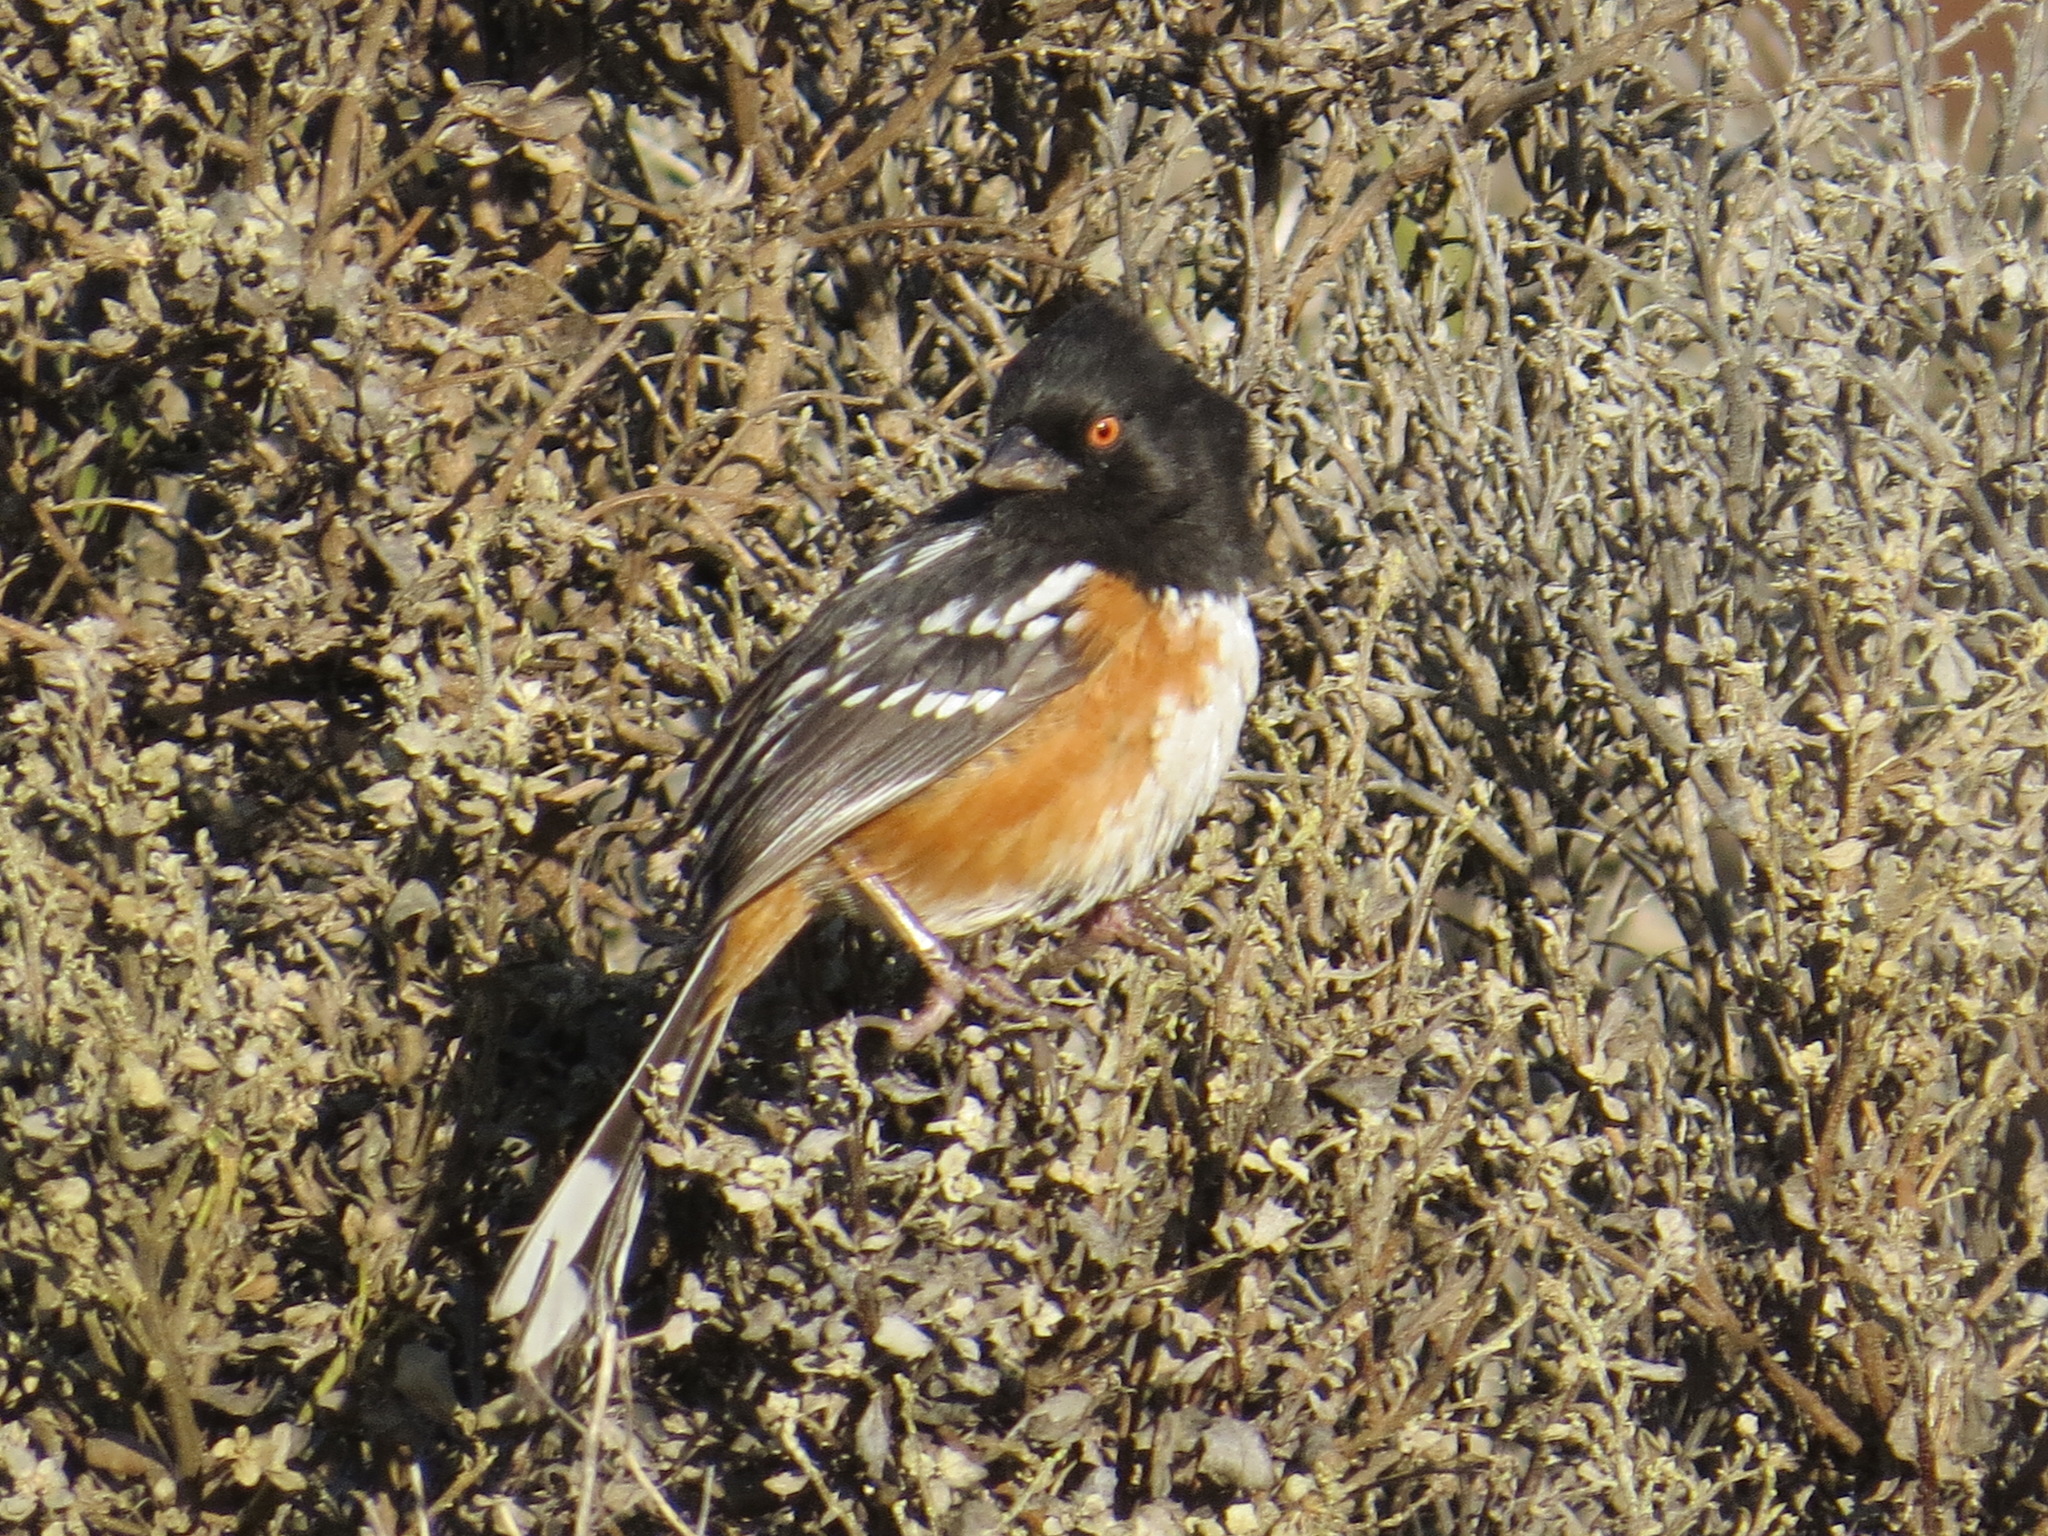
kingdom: Animalia
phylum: Chordata
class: Aves
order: Passeriformes
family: Passerellidae
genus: Pipilo
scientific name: Pipilo maculatus
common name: Spotted towhee
